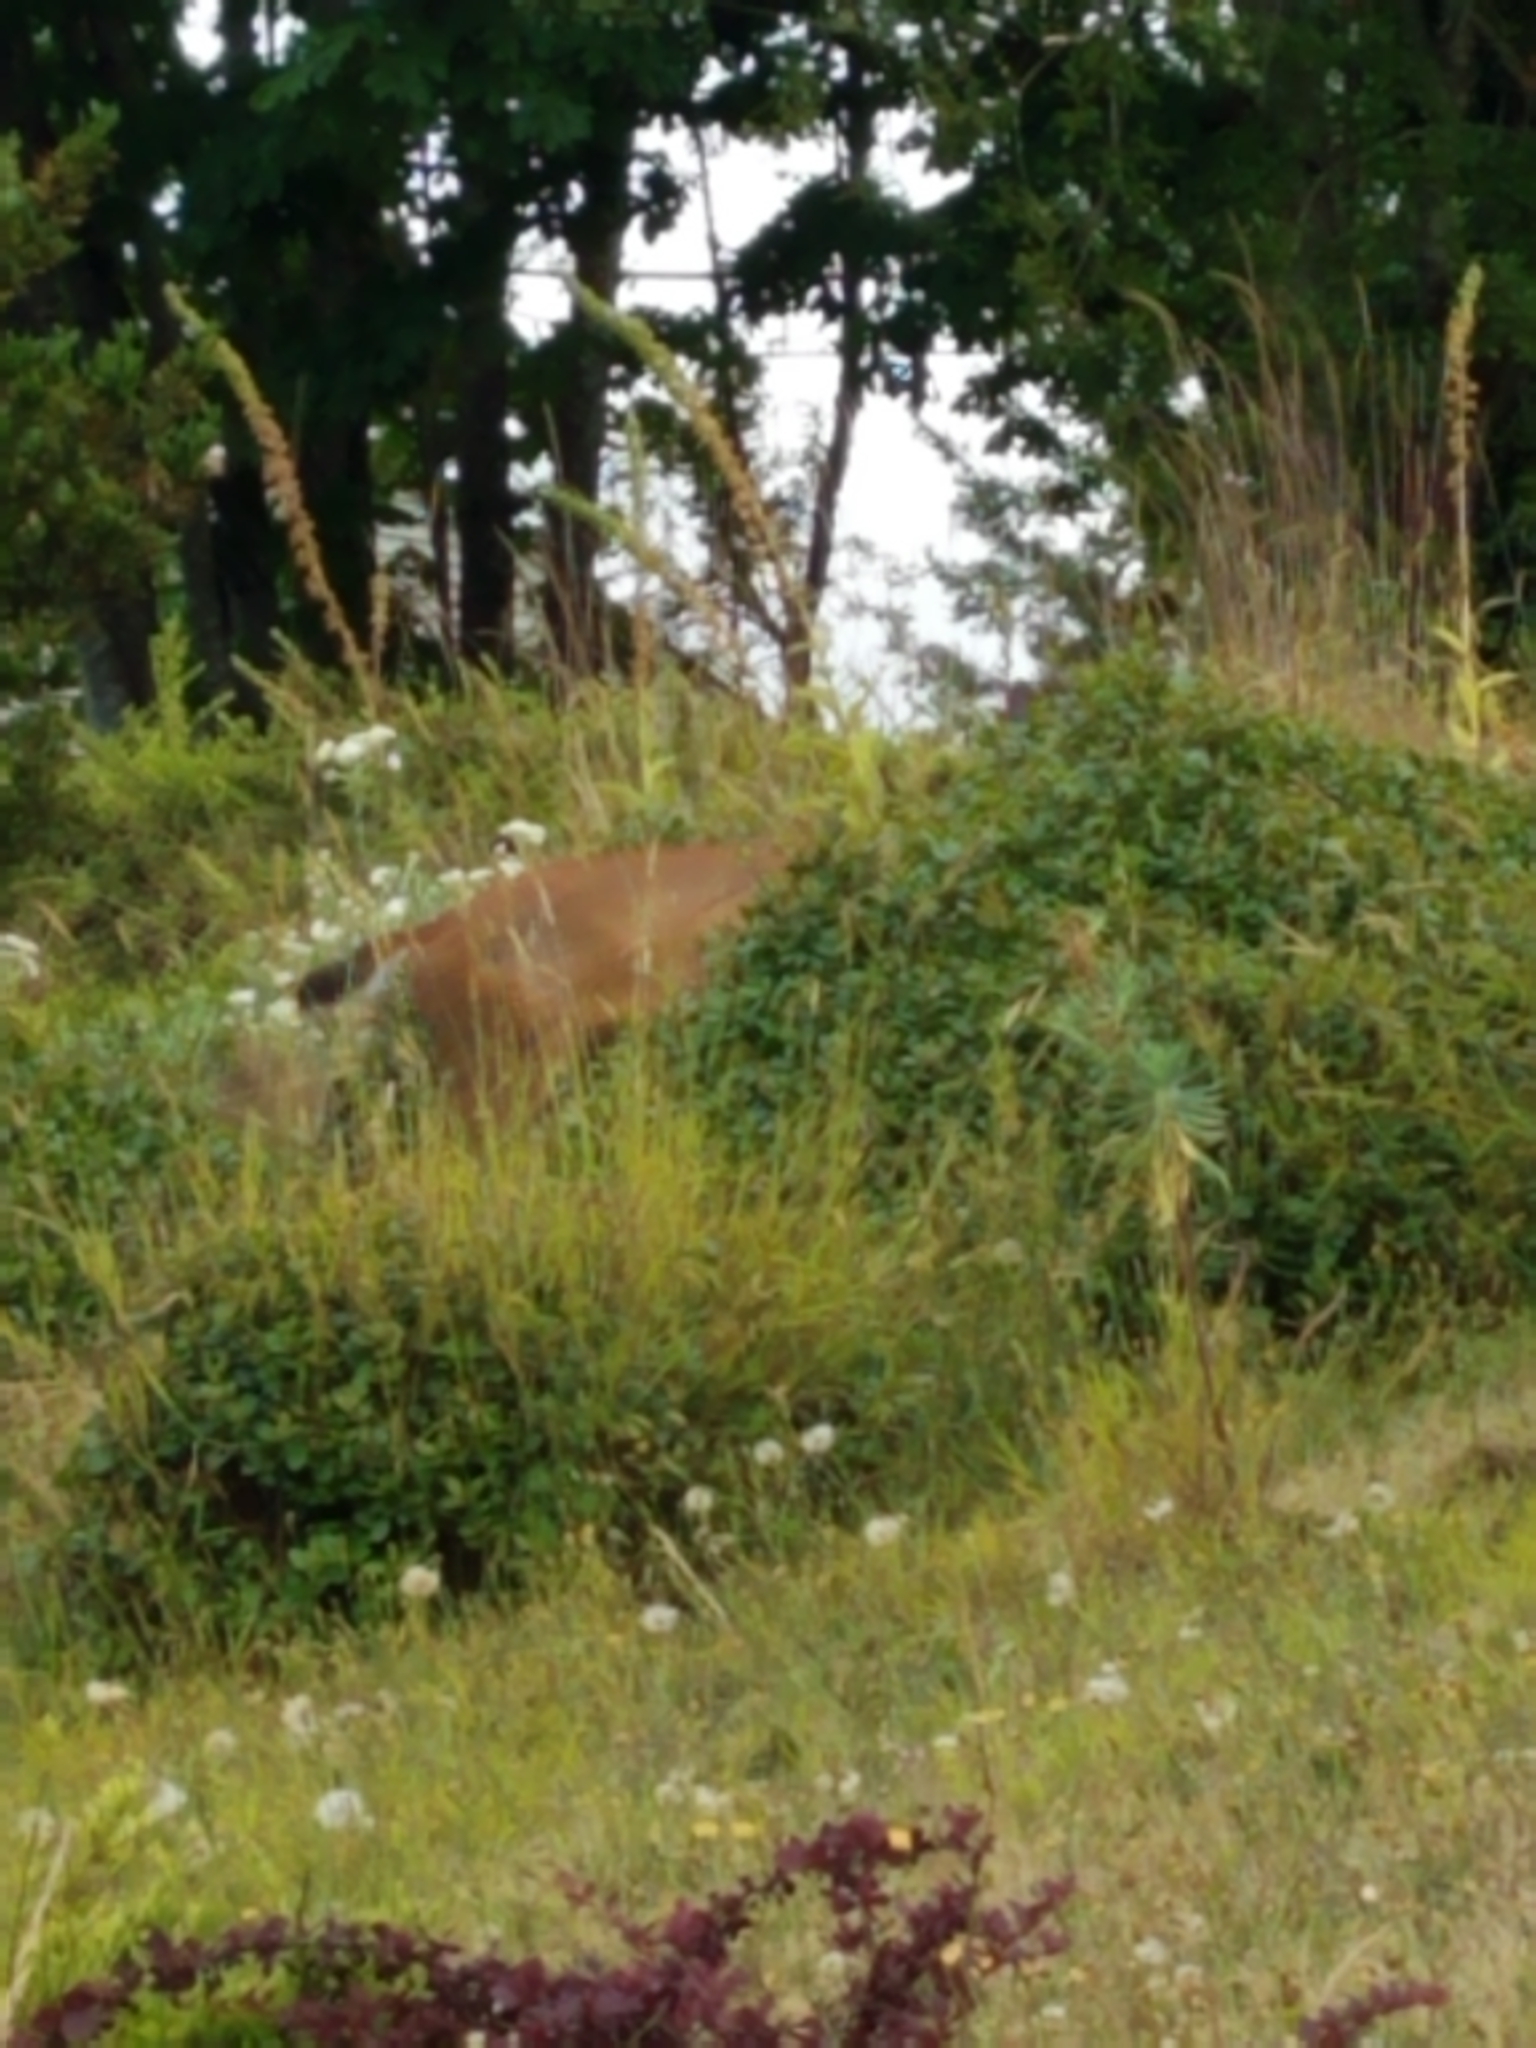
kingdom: Animalia
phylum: Chordata
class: Mammalia
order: Artiodactyla
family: Cervidae
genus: Odocoileus
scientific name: Odocoileus hemionus
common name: Mule deer
